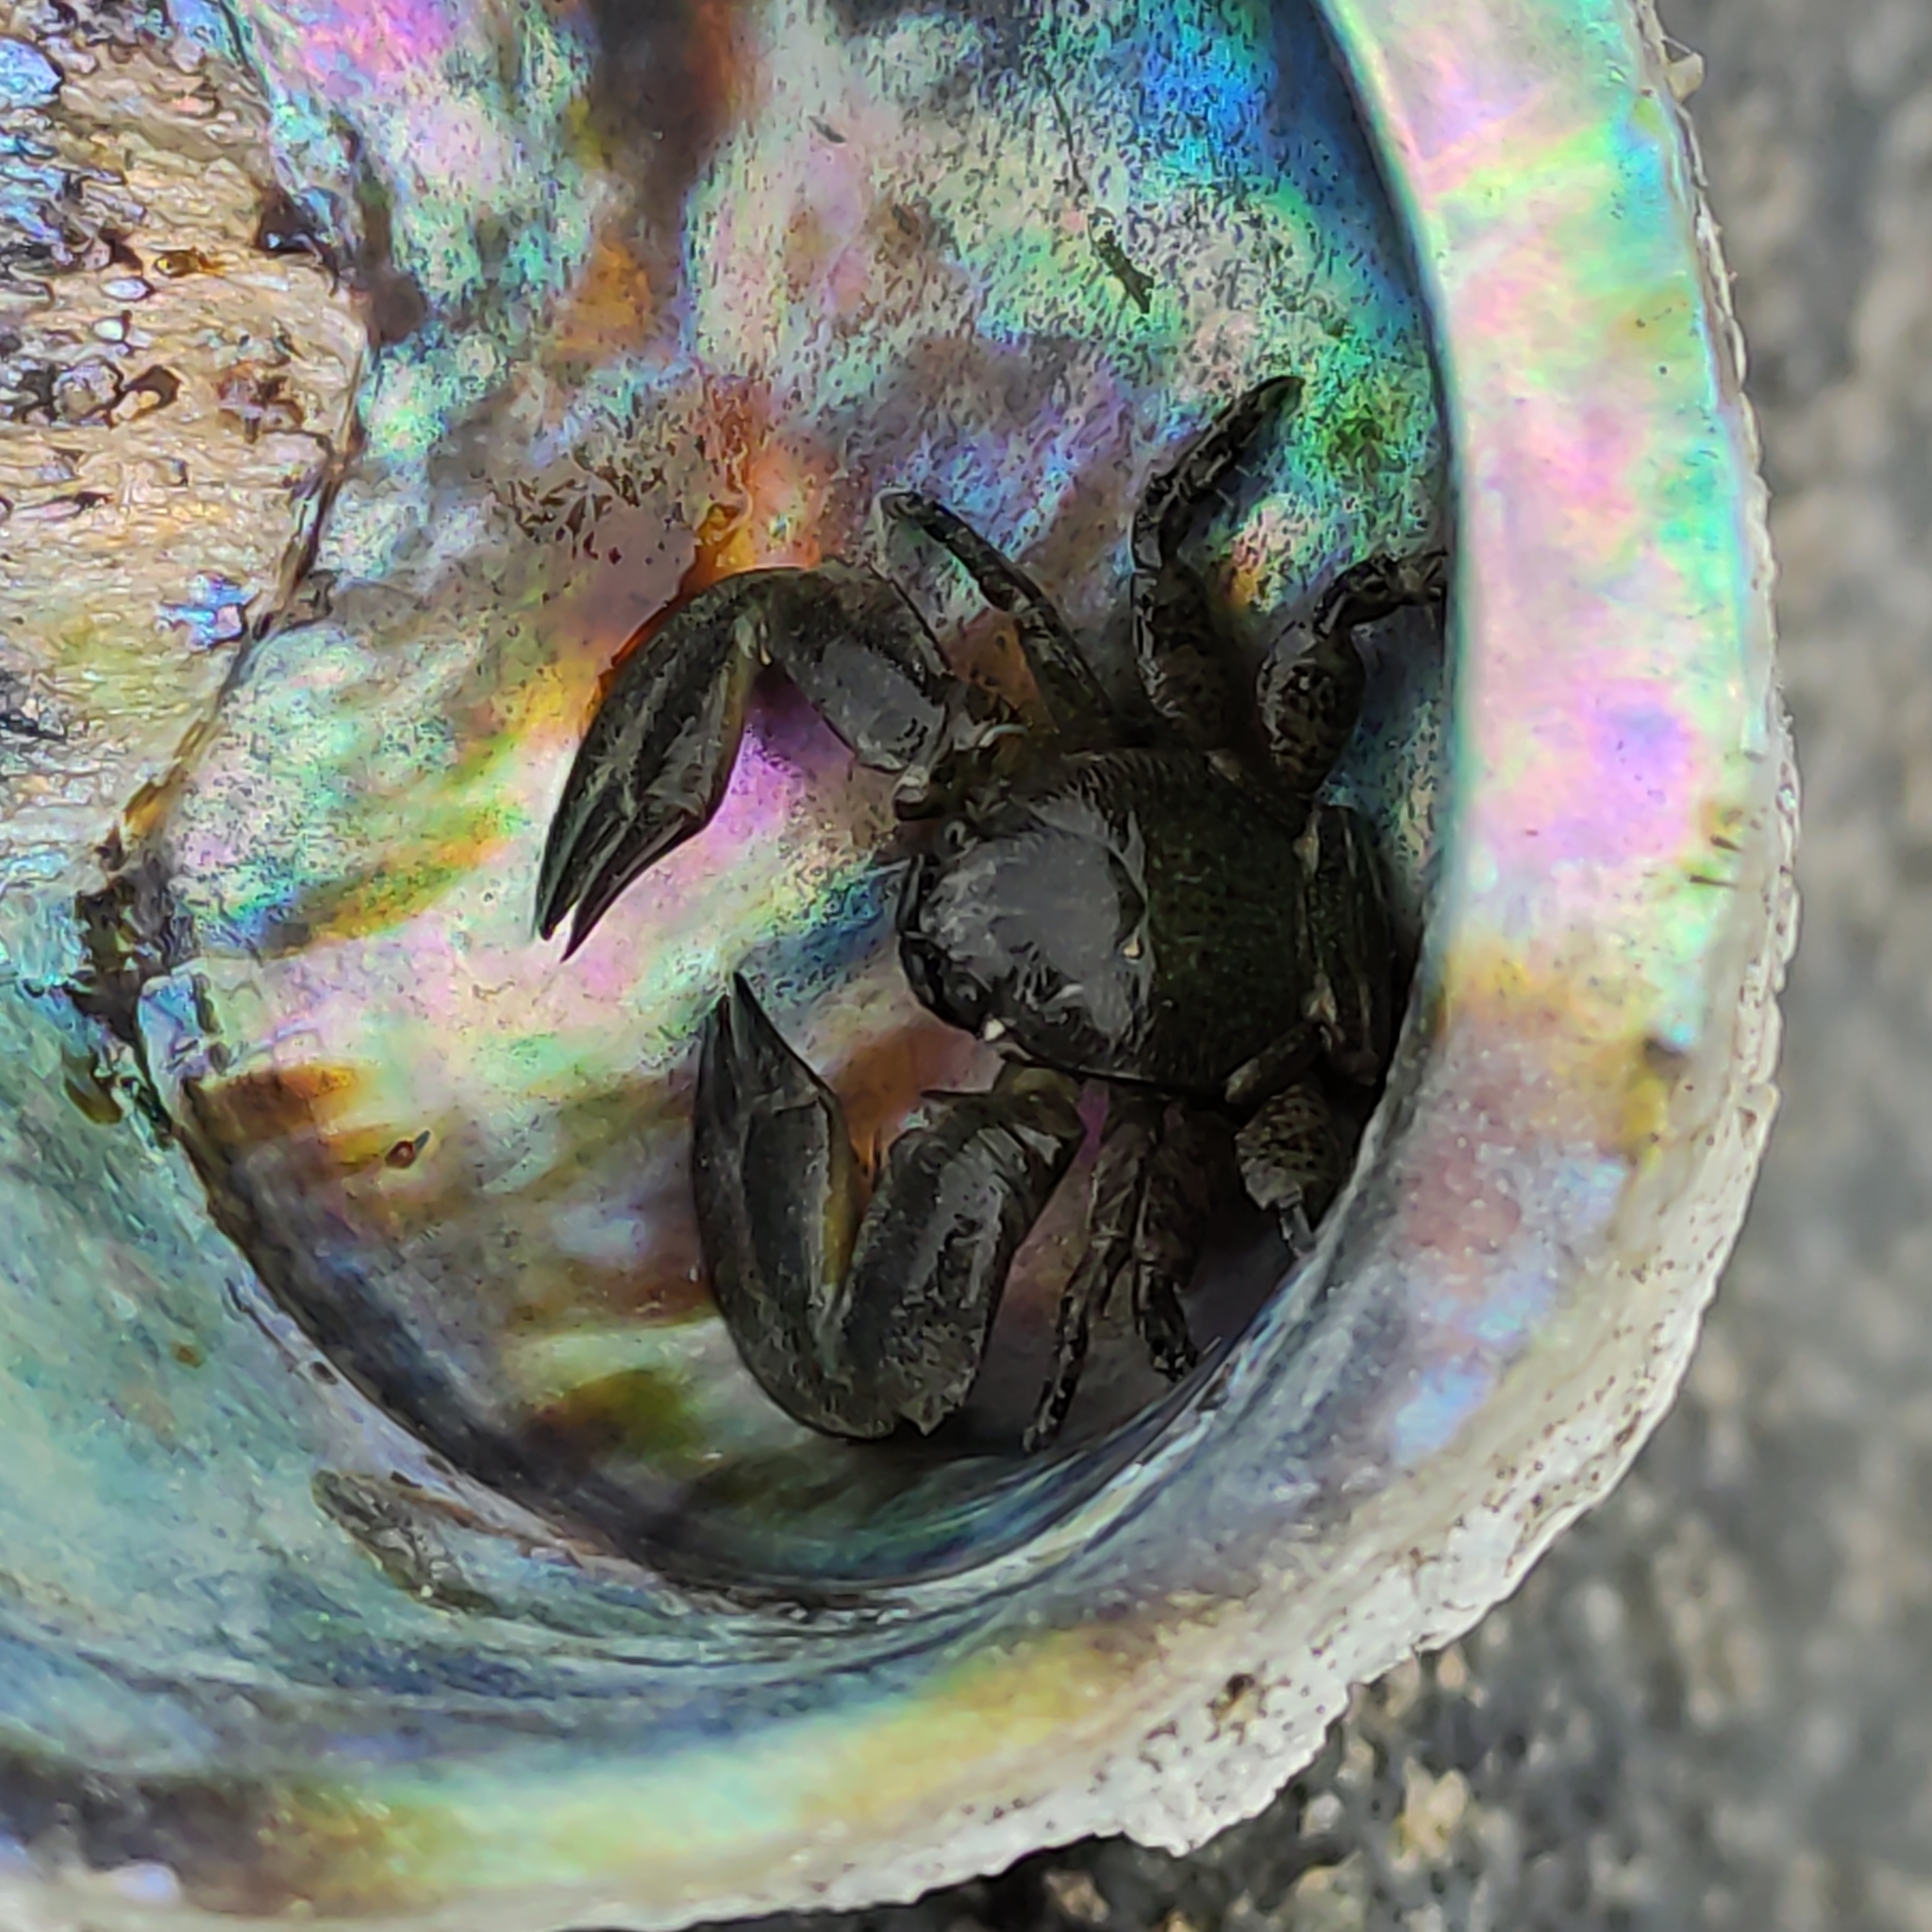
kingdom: Animalia
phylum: Arthropoda
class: Malacostraca
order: Decapoda
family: Porcellanidae
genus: Petrolisthes
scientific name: Petrolisthes elongatus
